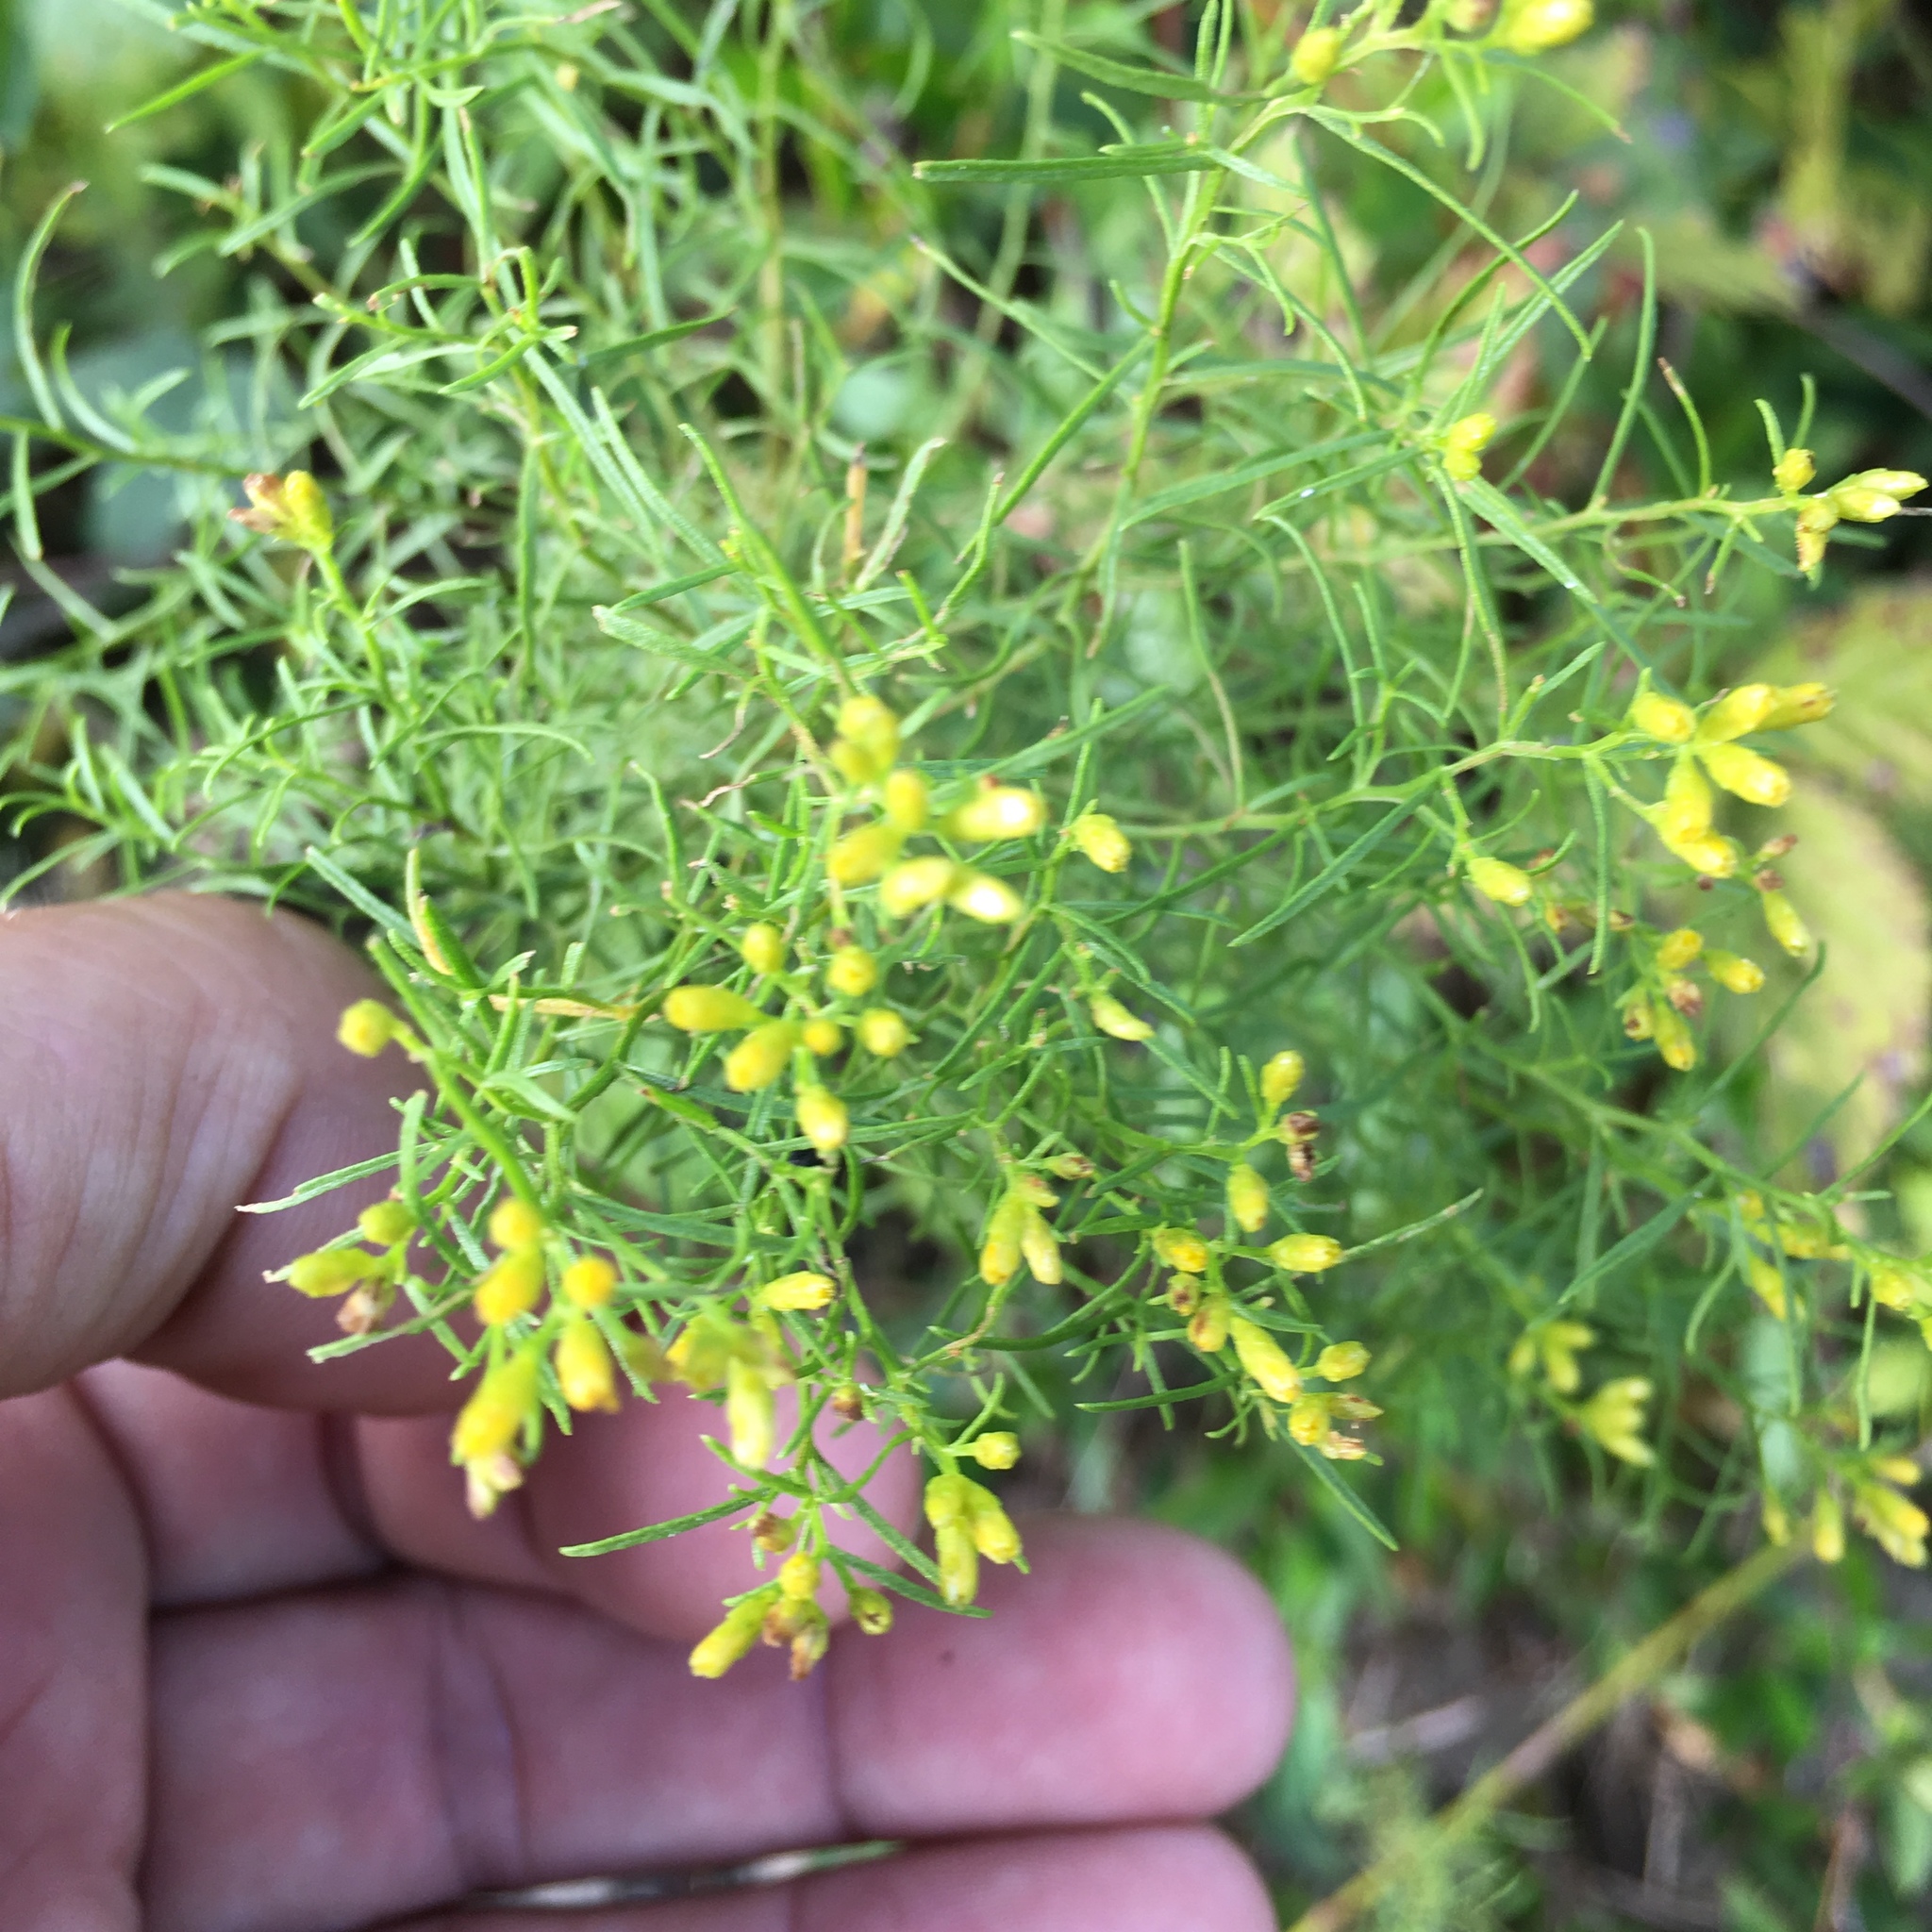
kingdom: Plantae
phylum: Tracheophyta
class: Magnoliopsida
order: Asterales
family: Asteraceae
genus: Euthamia
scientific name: Euthamia caroliniana
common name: Coastal plain goldentop
